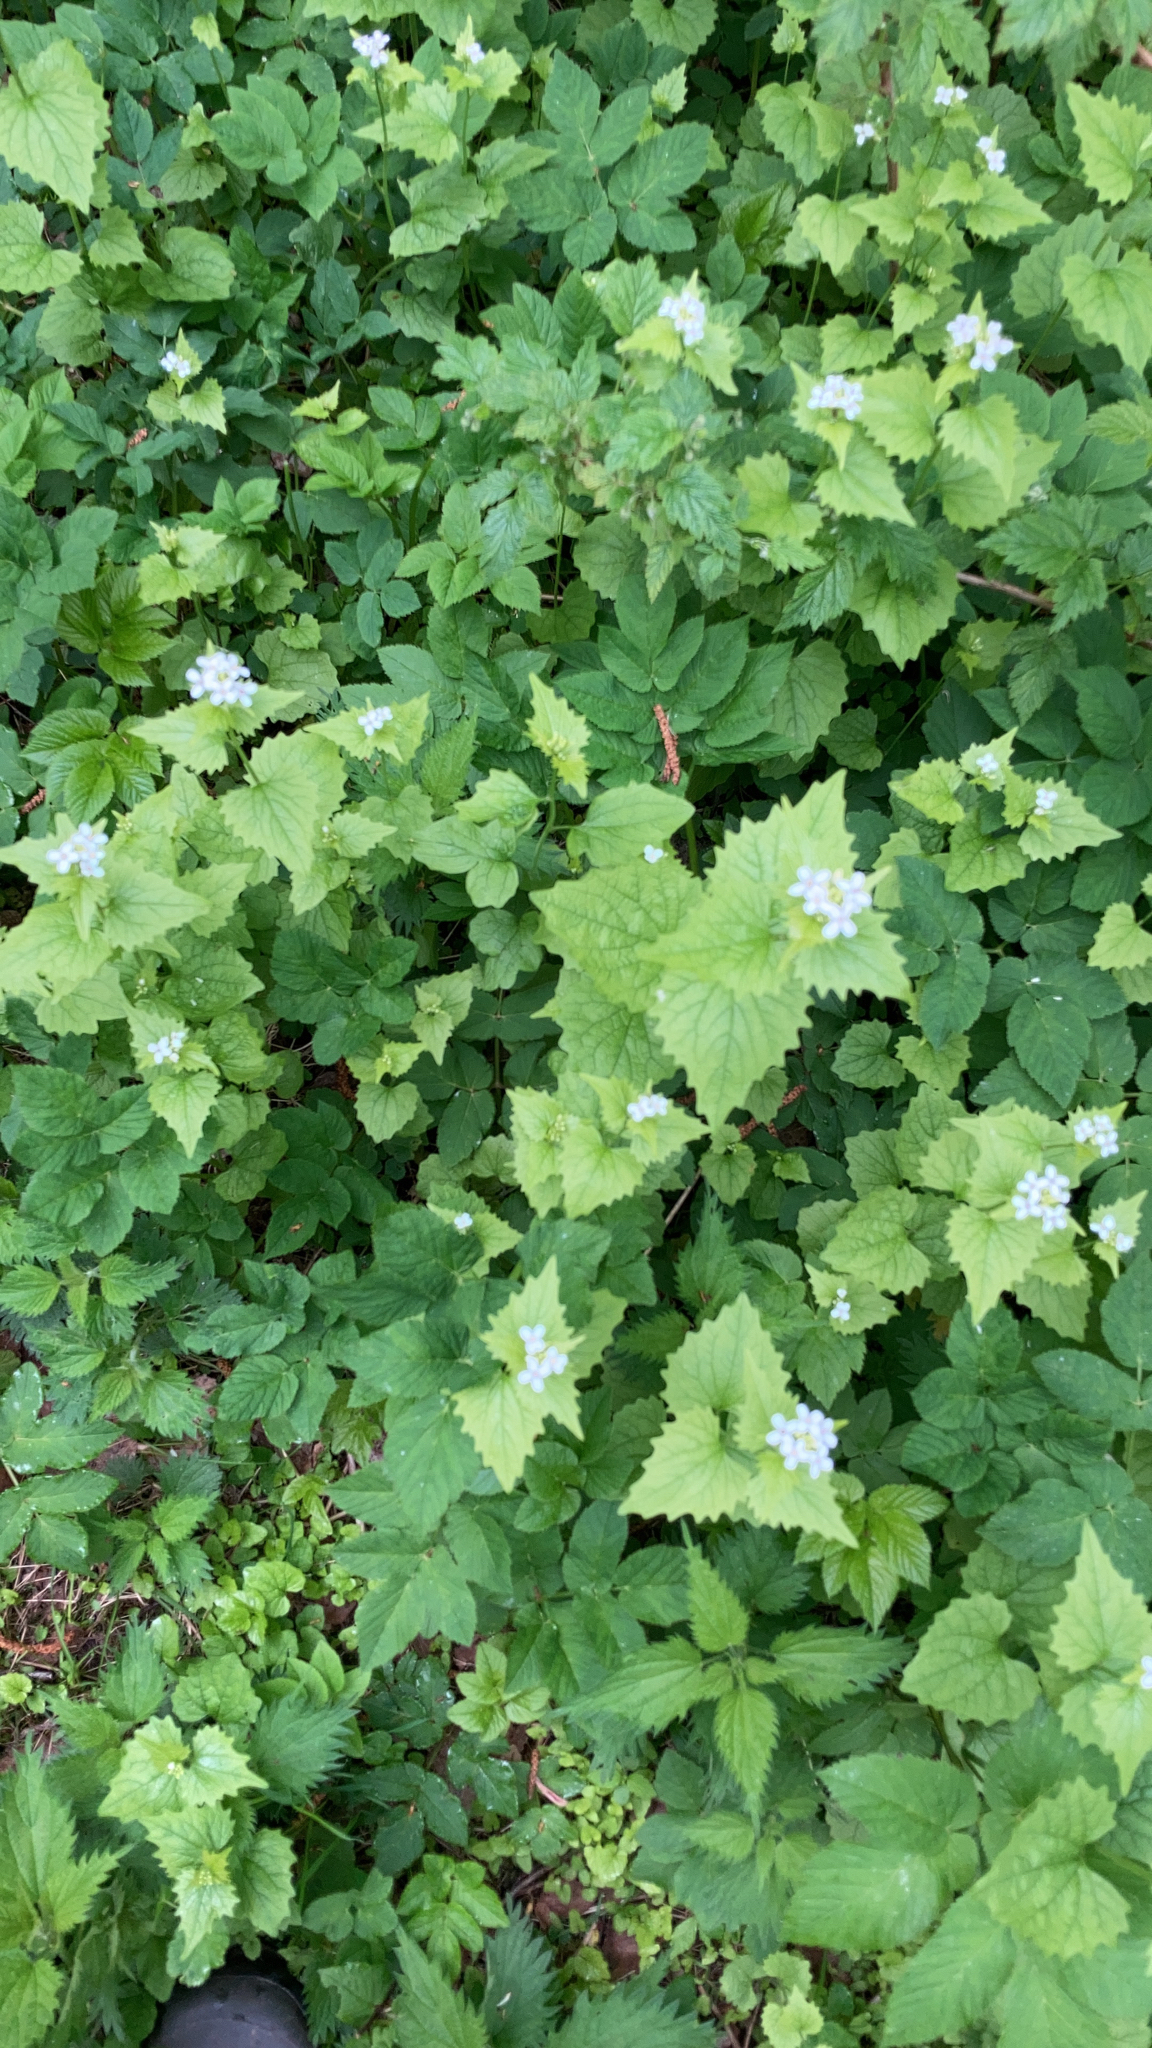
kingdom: Plantae
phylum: Tracheophyta
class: Magnoliopsida
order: Brassicales
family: Brassicaceae
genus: Alliaria
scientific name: Alliaria petiolata
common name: Garlic mustard
